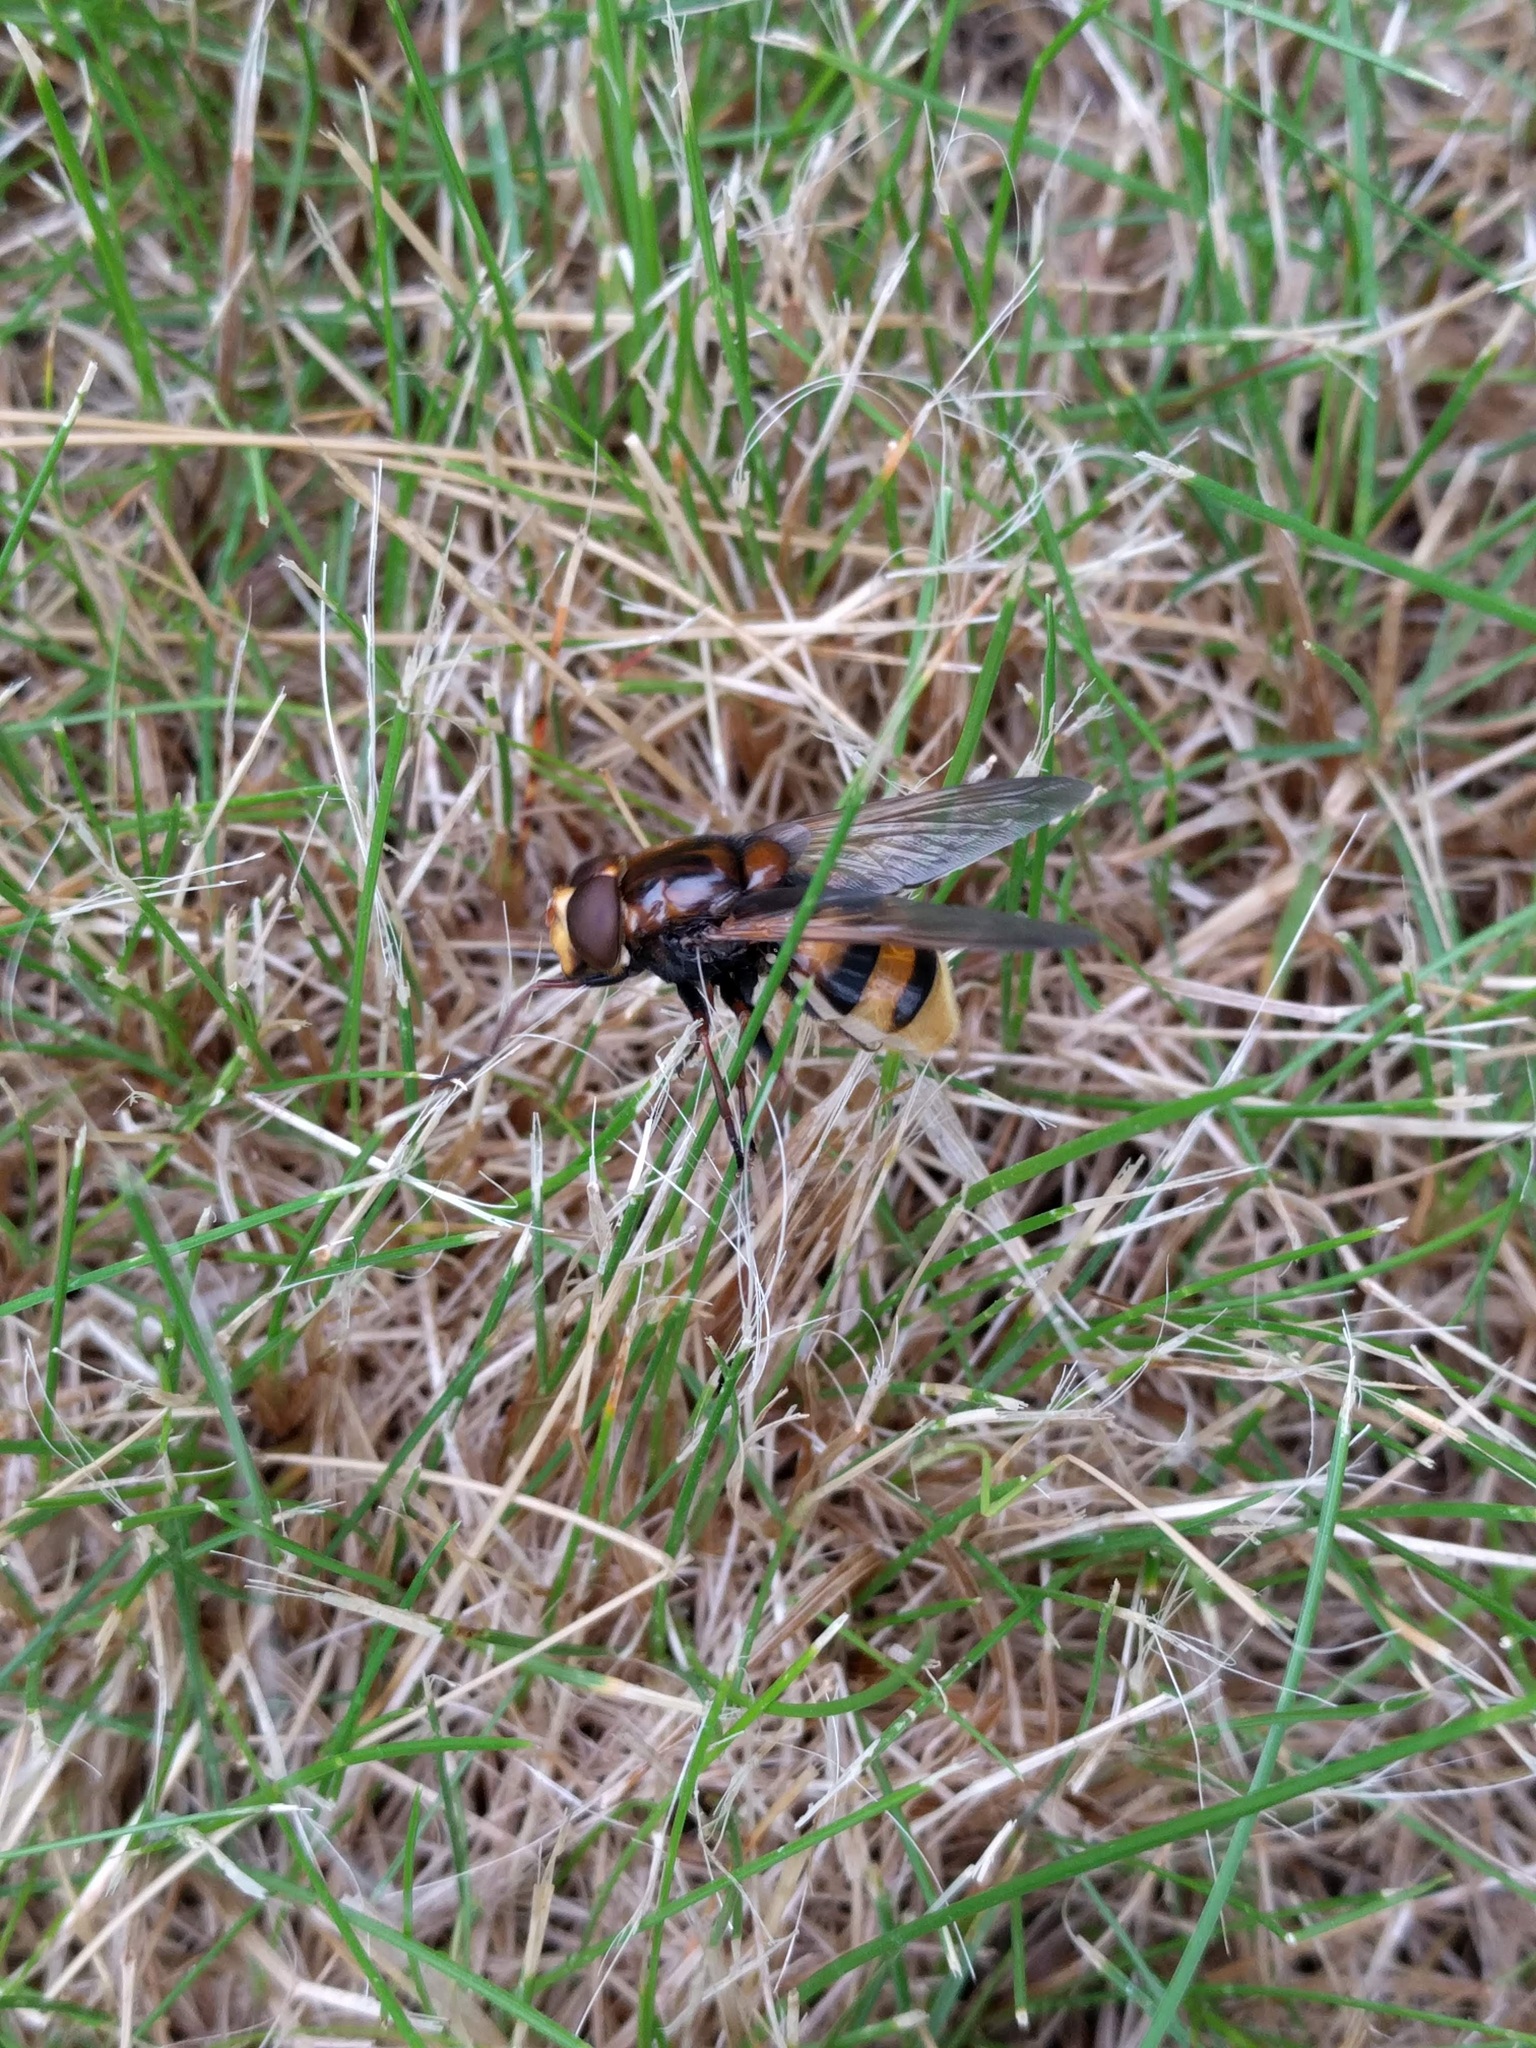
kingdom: Animalia
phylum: Arthropoda
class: Insecta
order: Diptera
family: Syrphidae
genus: Volucella
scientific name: Volucella zonaria
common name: Hornet hoverfly
